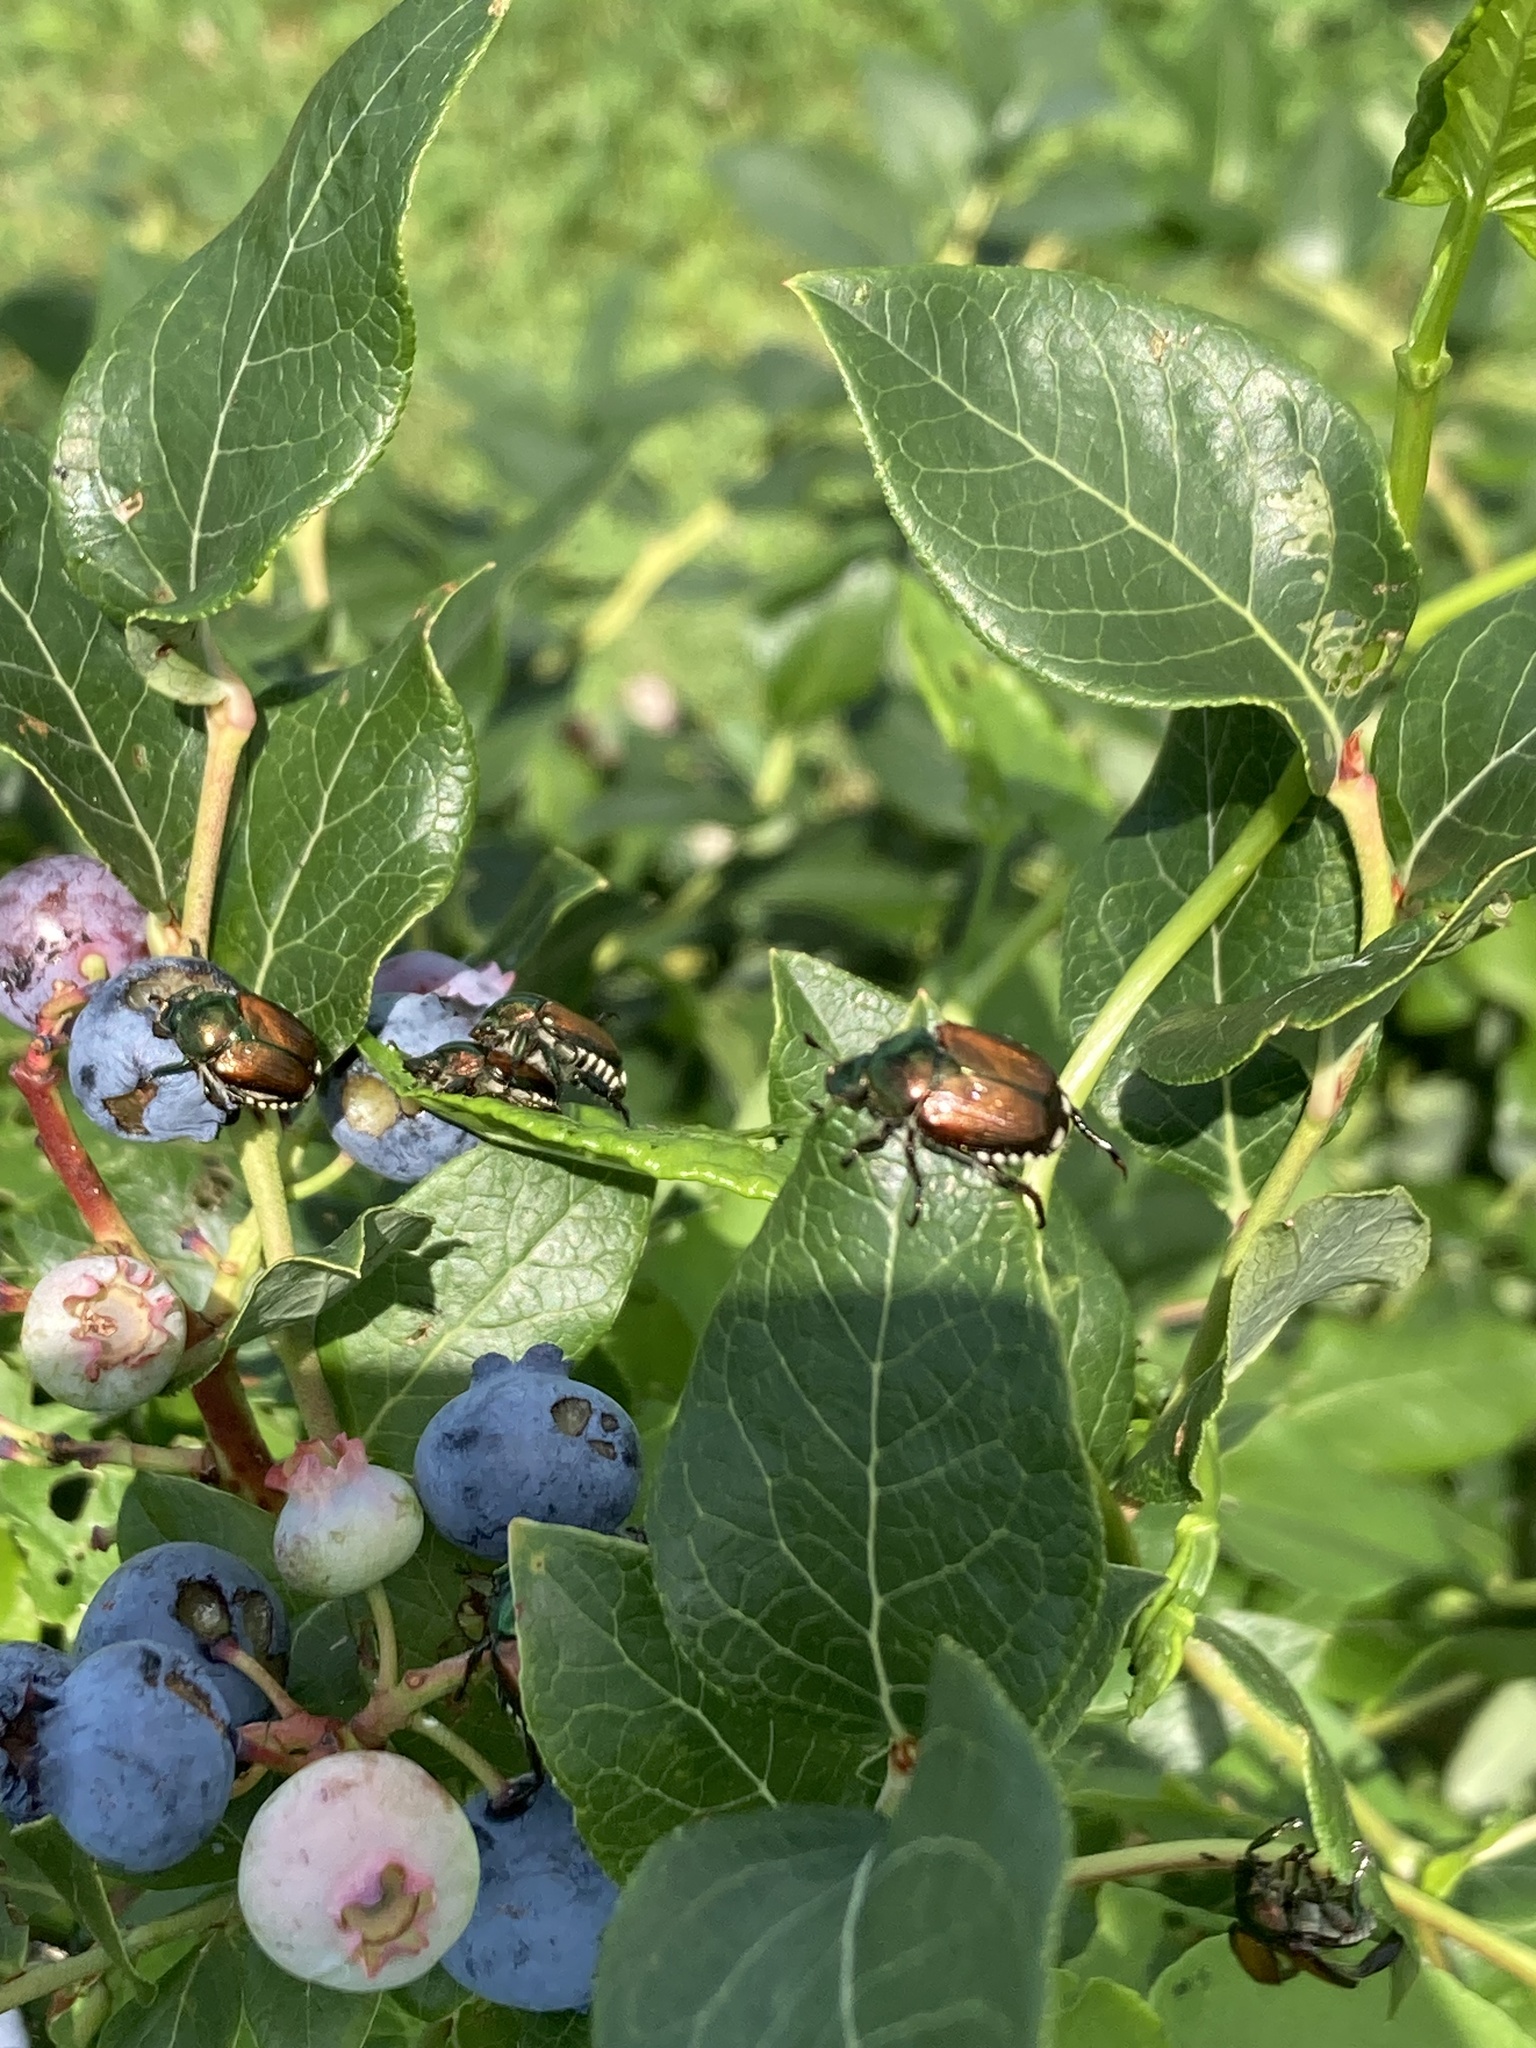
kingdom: Animalia
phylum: Arthropoda
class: Insecta
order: Coleoptera
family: Scarabaeidae
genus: Popillia
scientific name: Popillia japonica
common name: Japanese beetle
